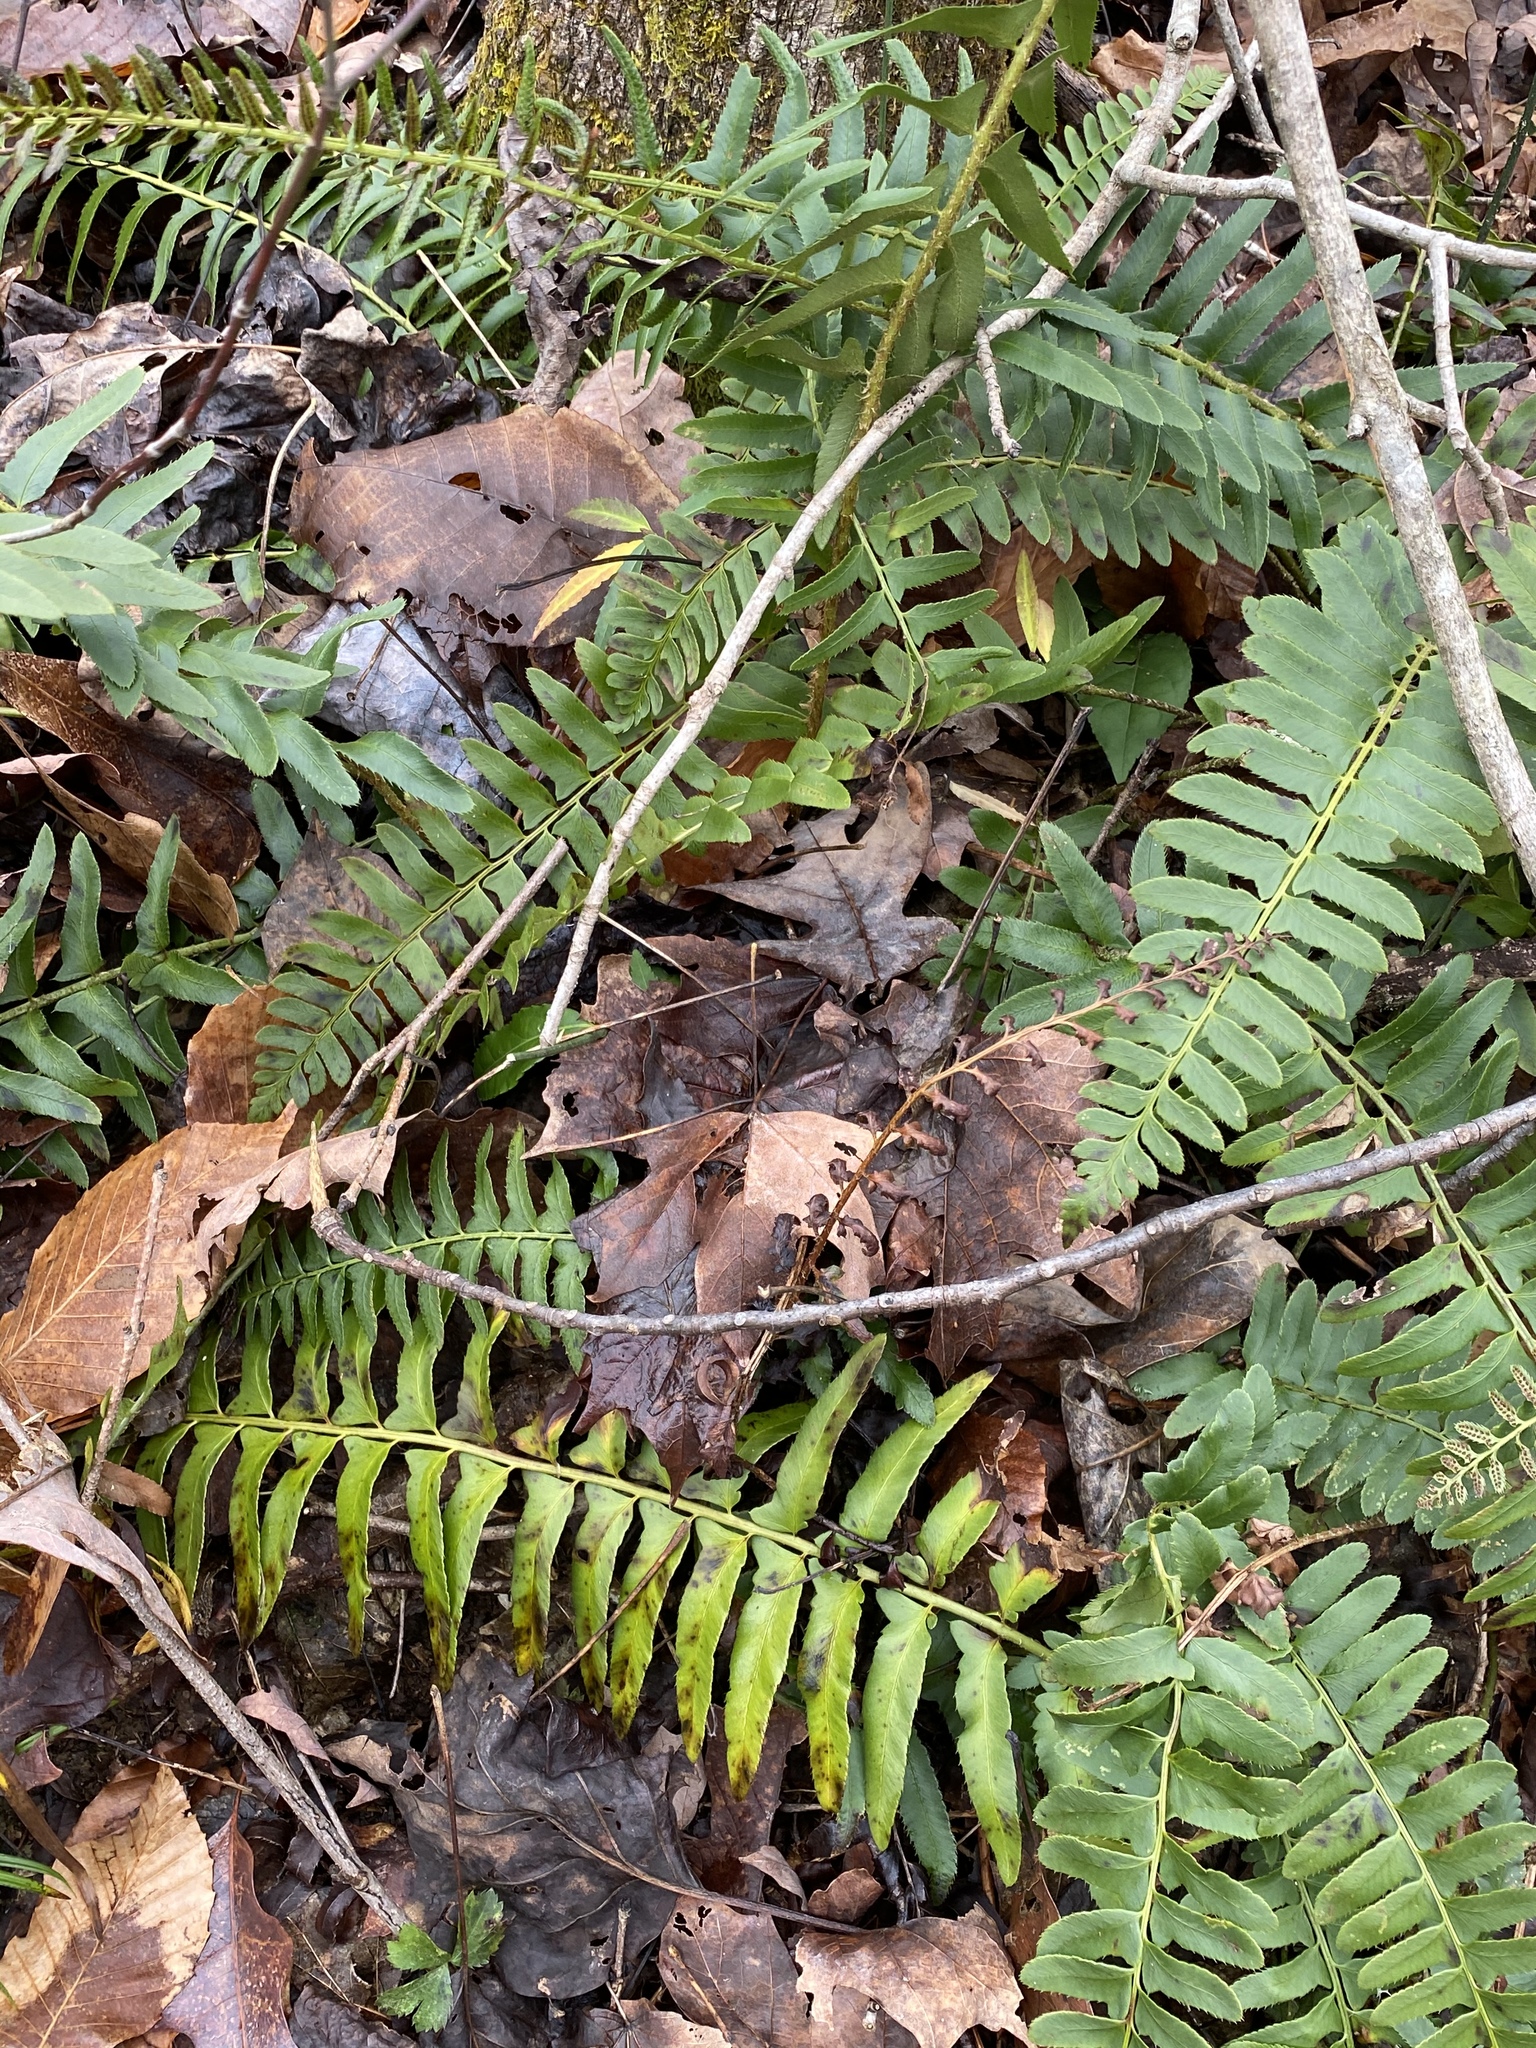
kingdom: Plantae
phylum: Tracheophyta
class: Polypodiopsida
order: Polypodiales
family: Dryopteridaceae
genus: Polystichum
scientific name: Polystichum acrostichoides
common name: Christmas fern
